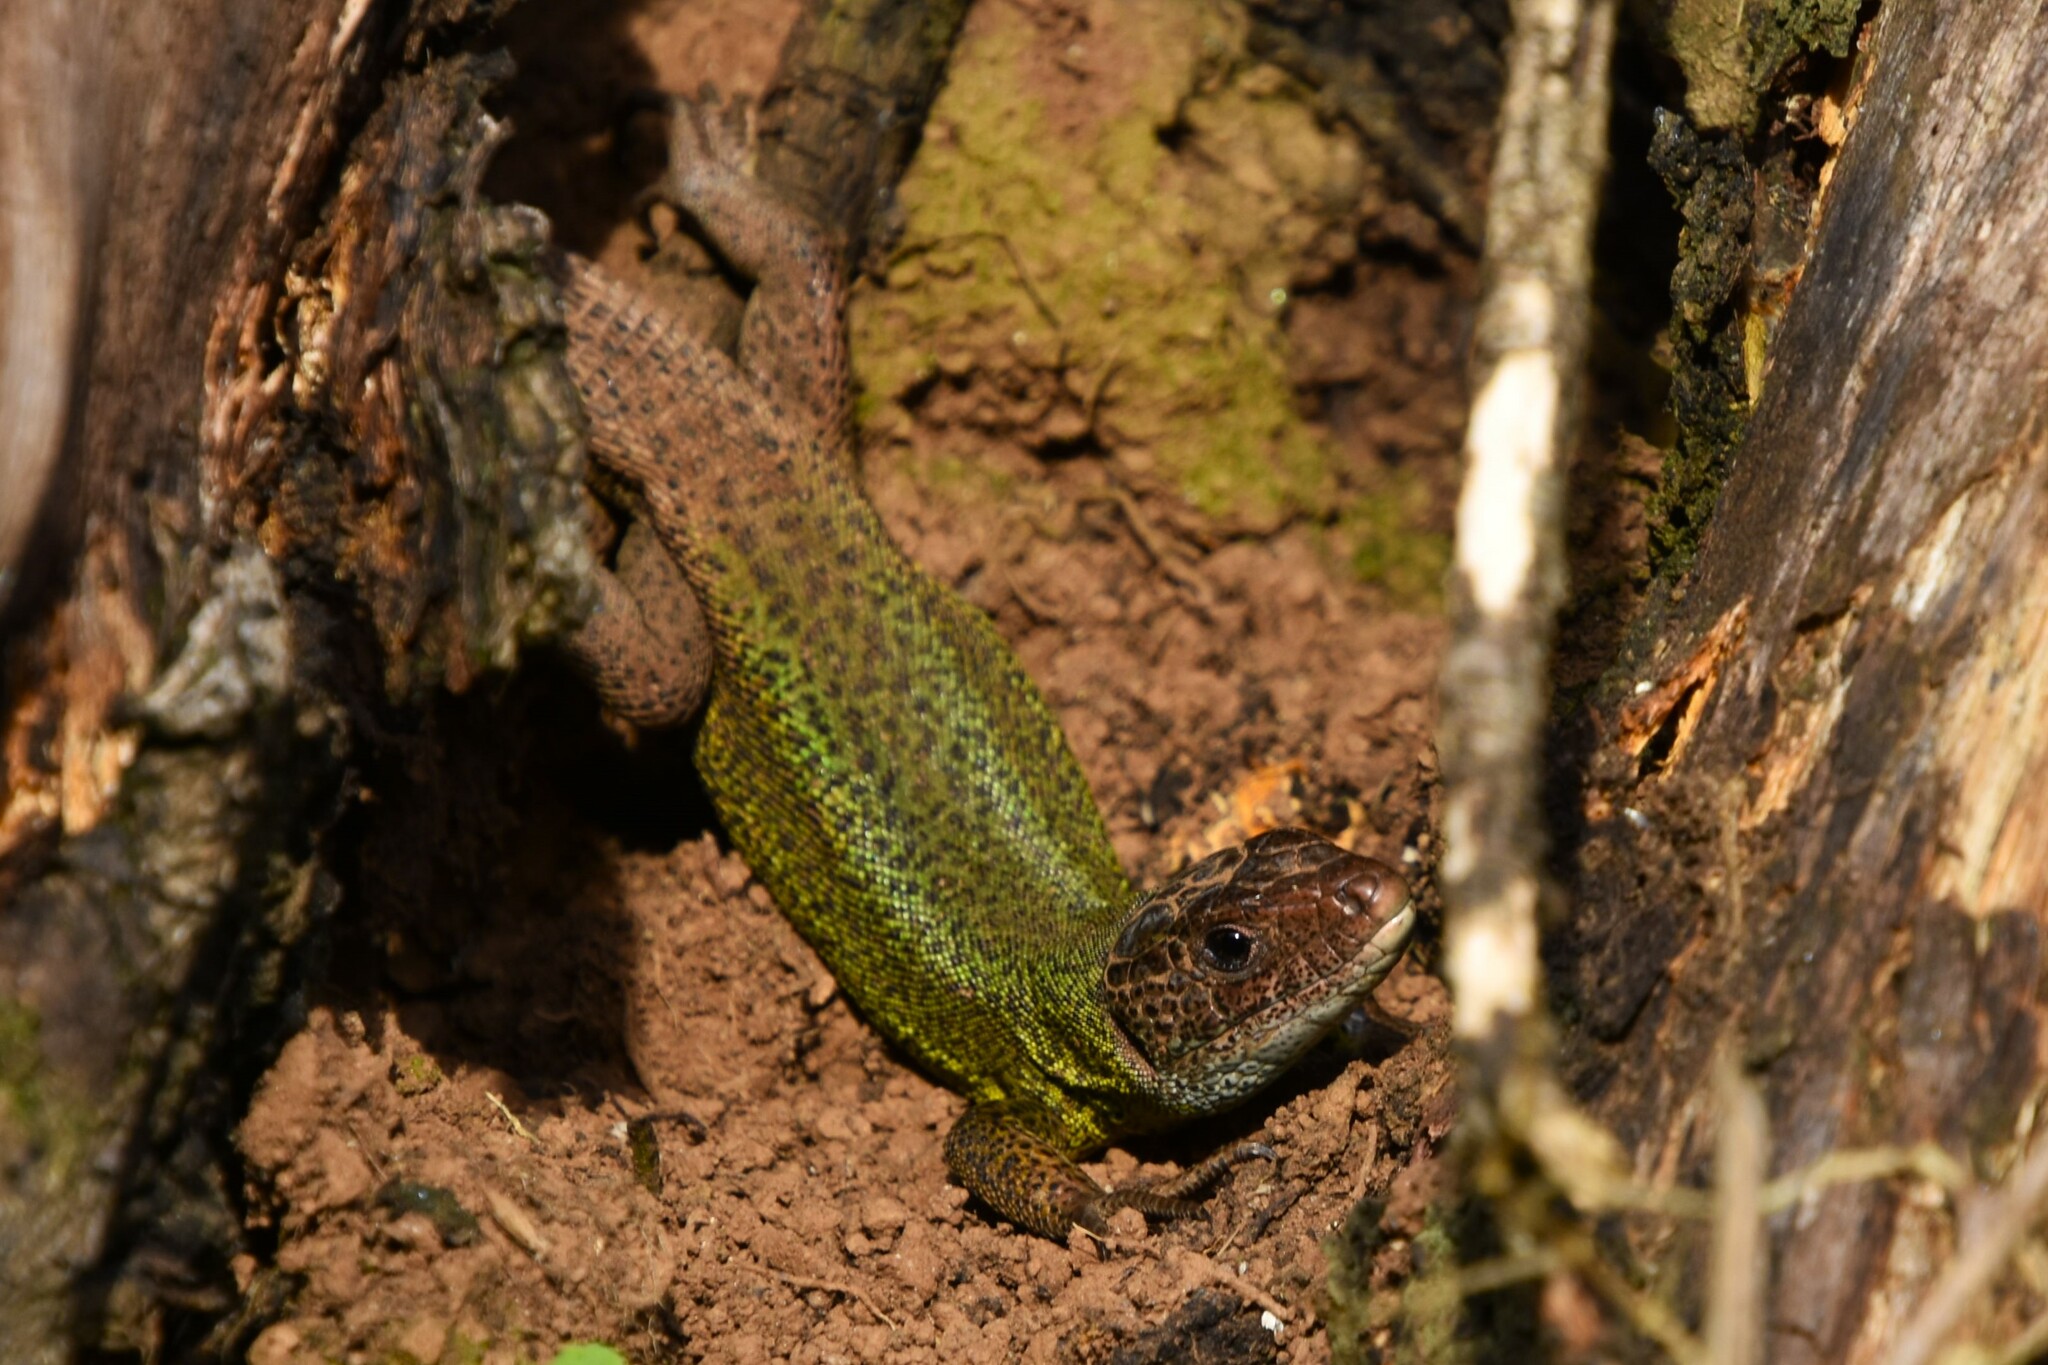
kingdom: Animalia
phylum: Chordata
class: Squamata
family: Lacertidae
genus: Lacerta
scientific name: Lacerta schreiberi
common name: Iberian emerald lizard
